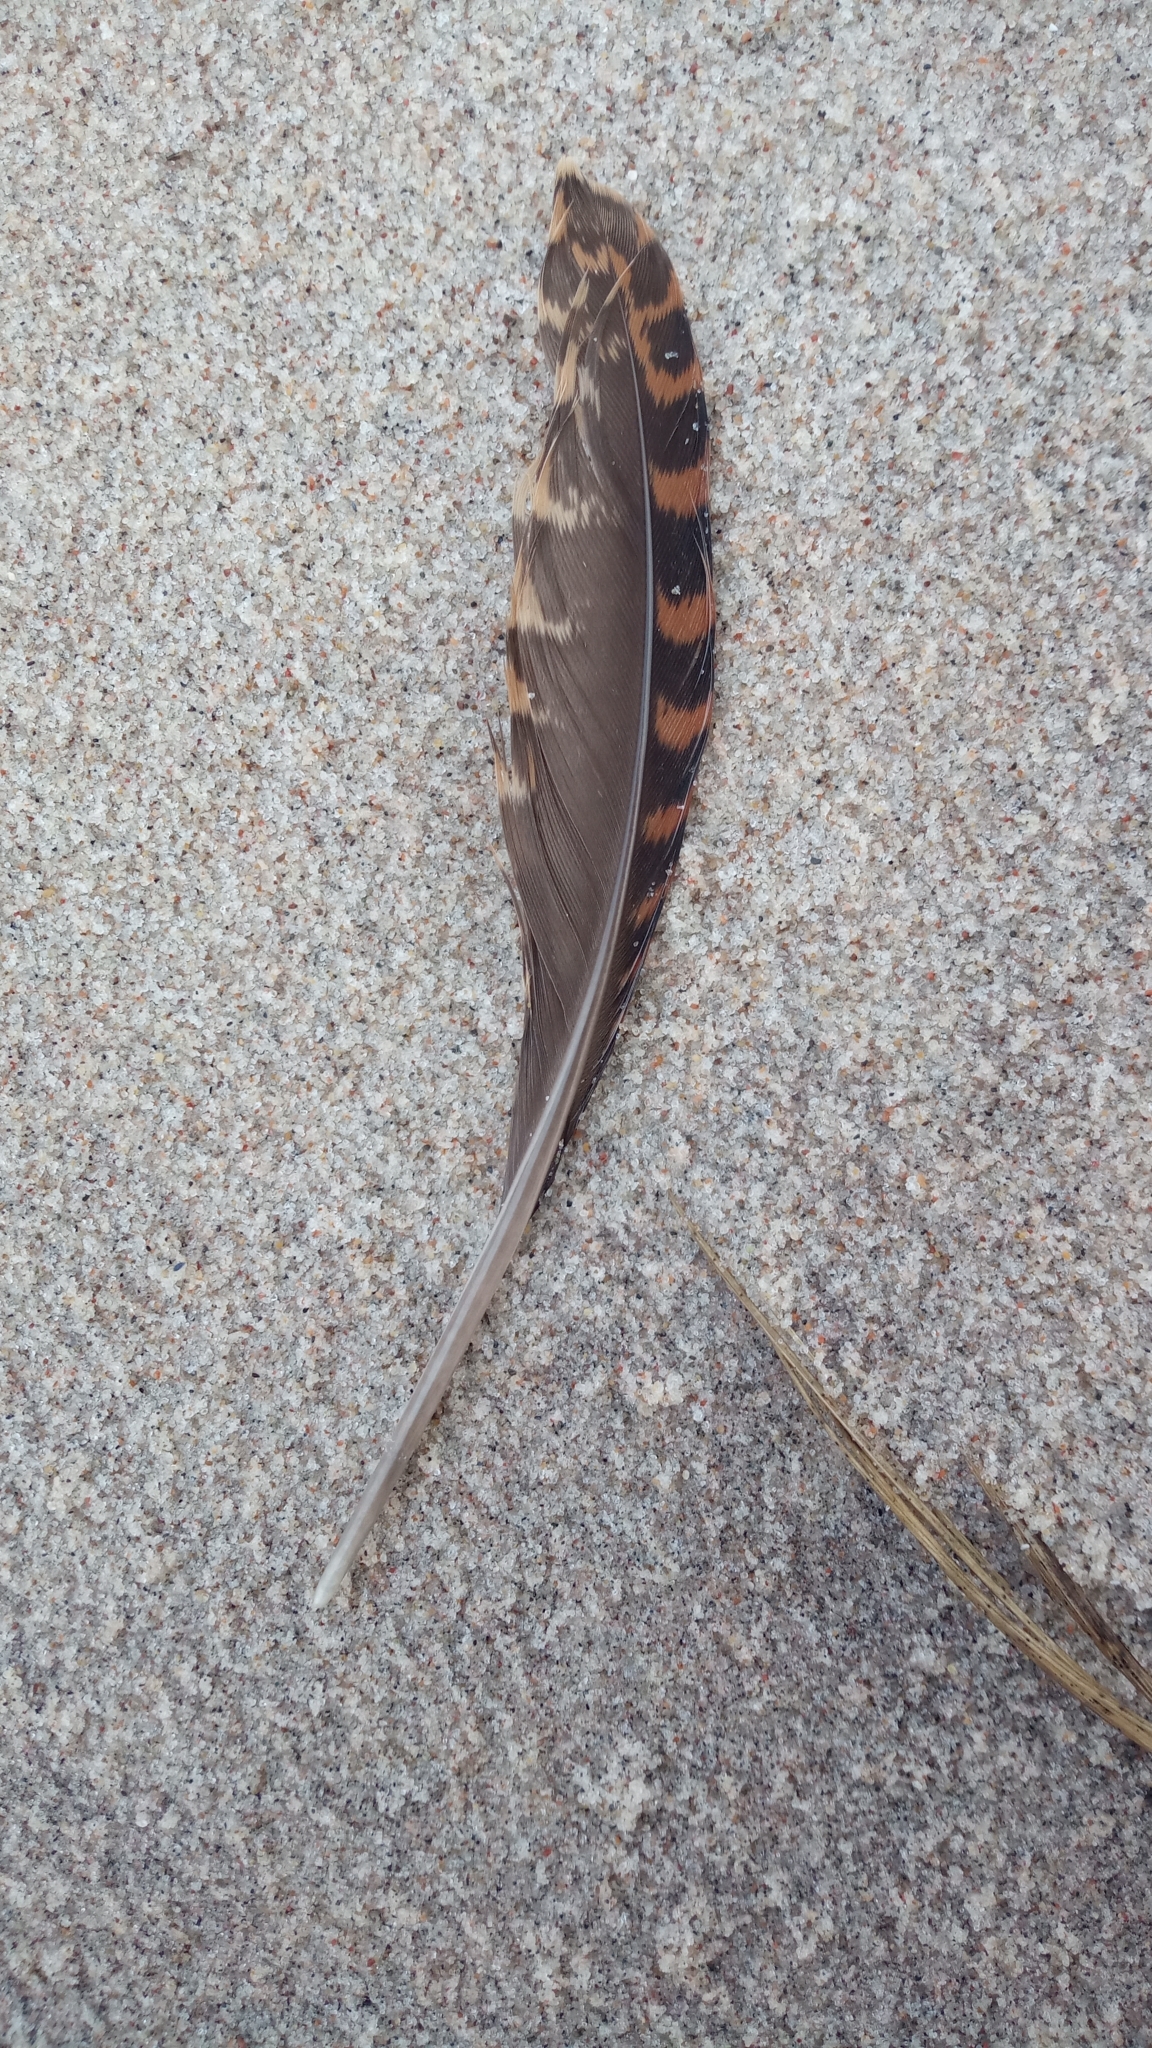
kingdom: Animalia
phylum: Chordata
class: Aves
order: Charadriiformes
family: Scolopacidae
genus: Scolopax
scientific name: Scolopax rusticola
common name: Eurasian woodcock
